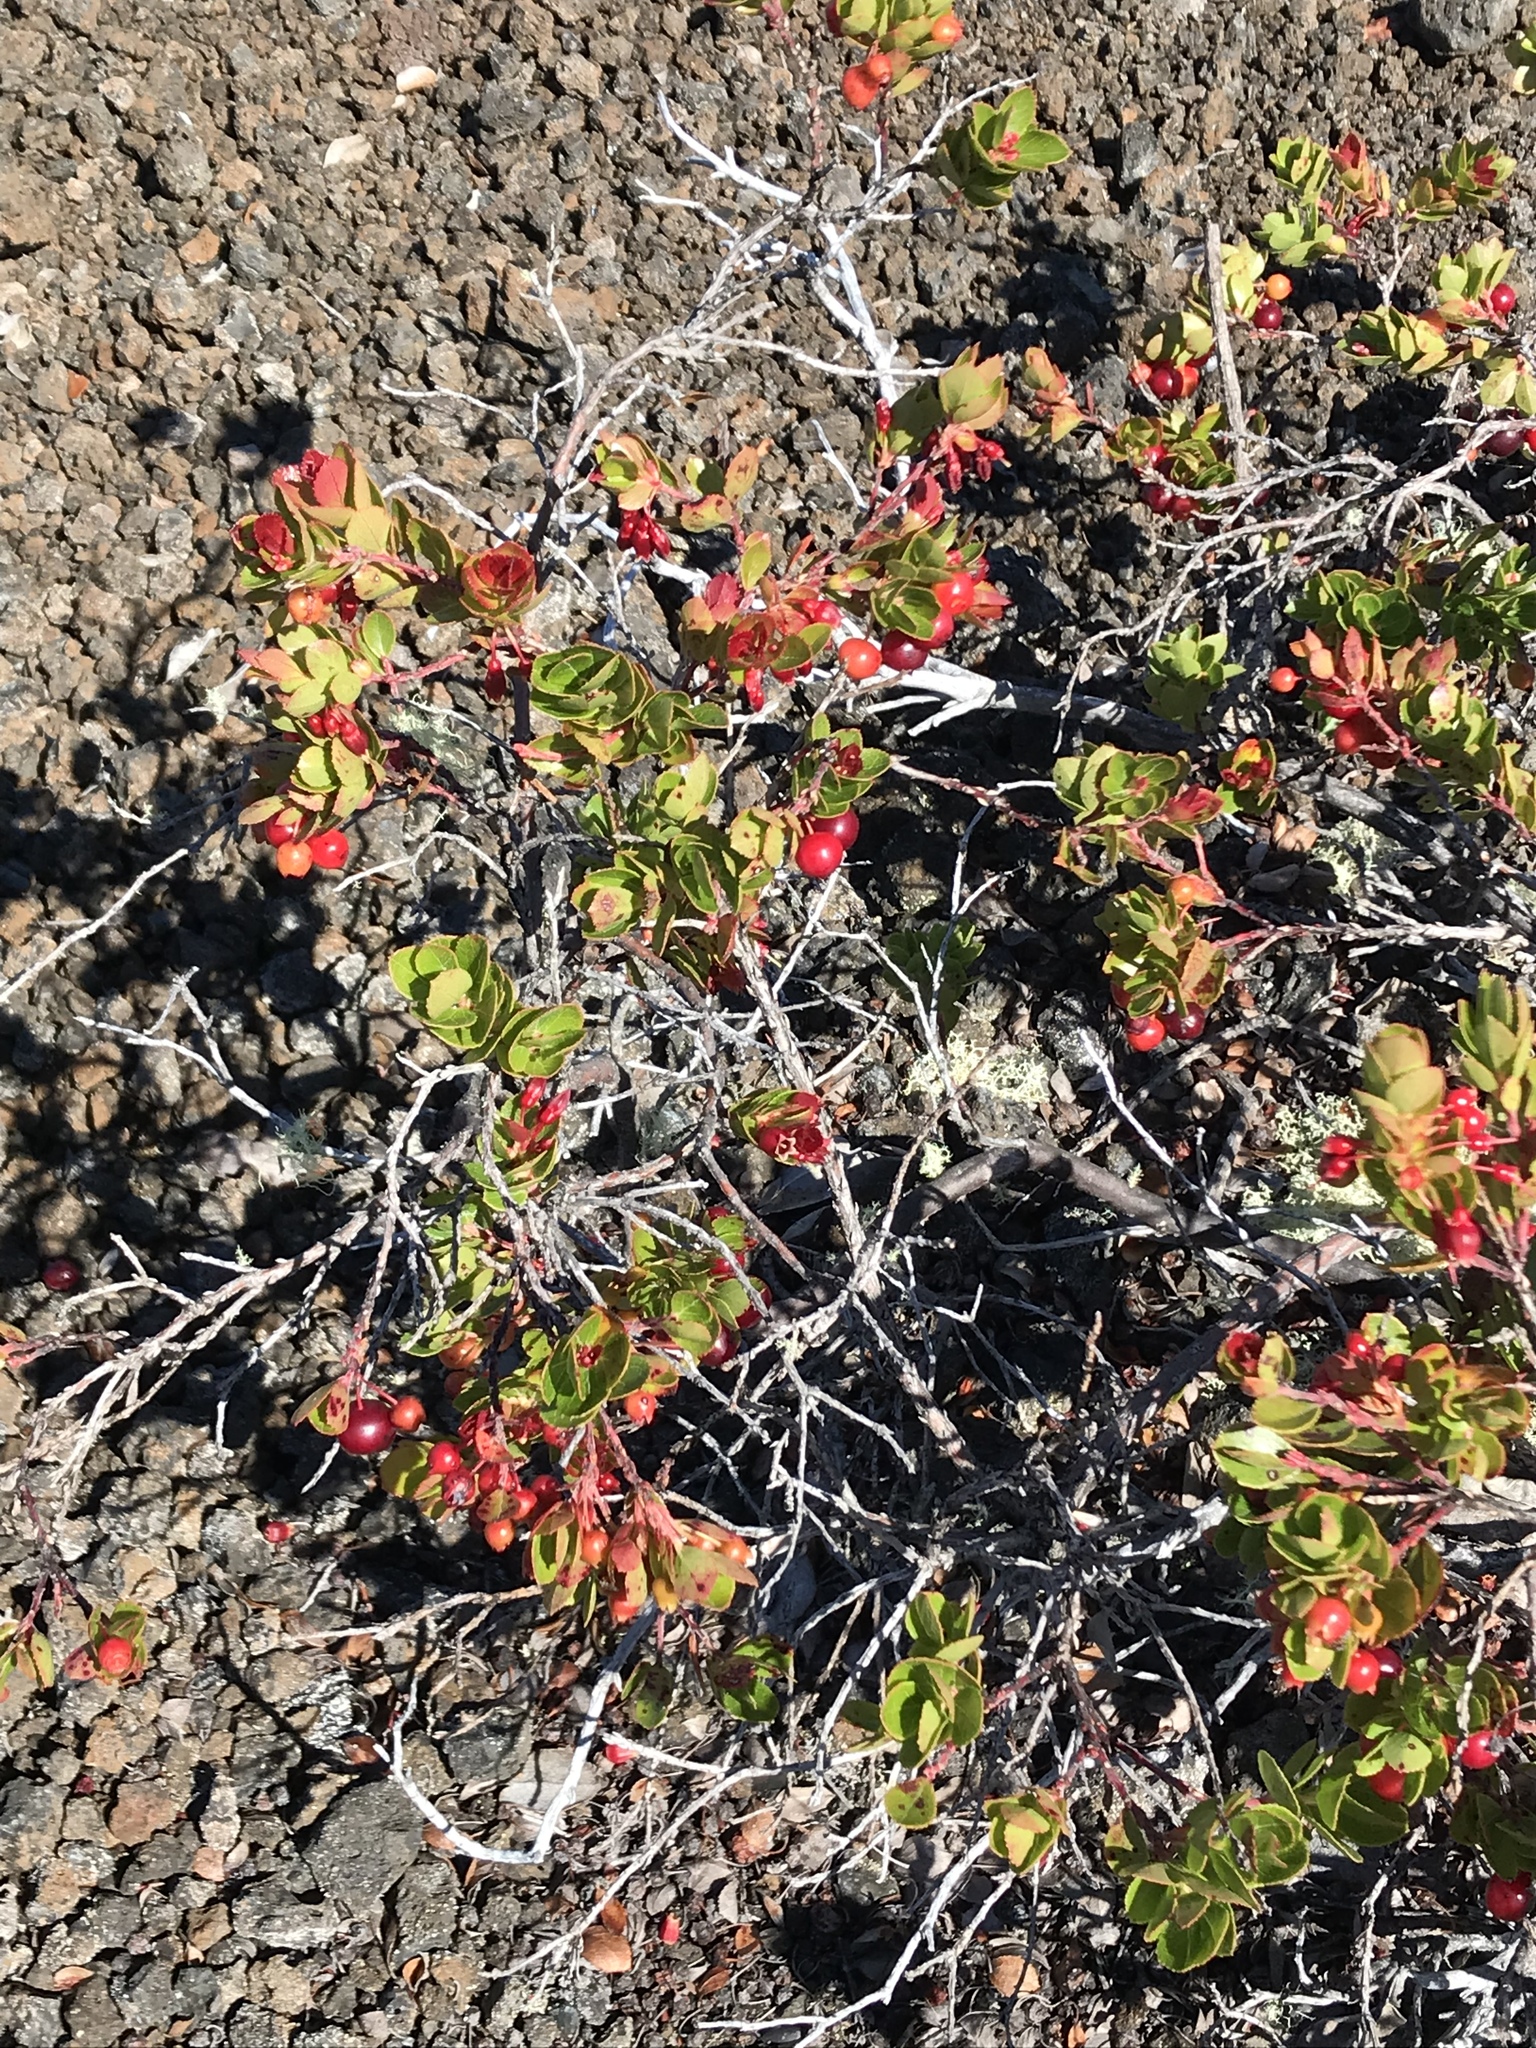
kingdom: Plantae
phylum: Tracheophyta
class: Magnoliopsida
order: Ericales
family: Ericaceae
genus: Vaccinium
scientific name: Vaccinium reticulatum
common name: Ohelo
